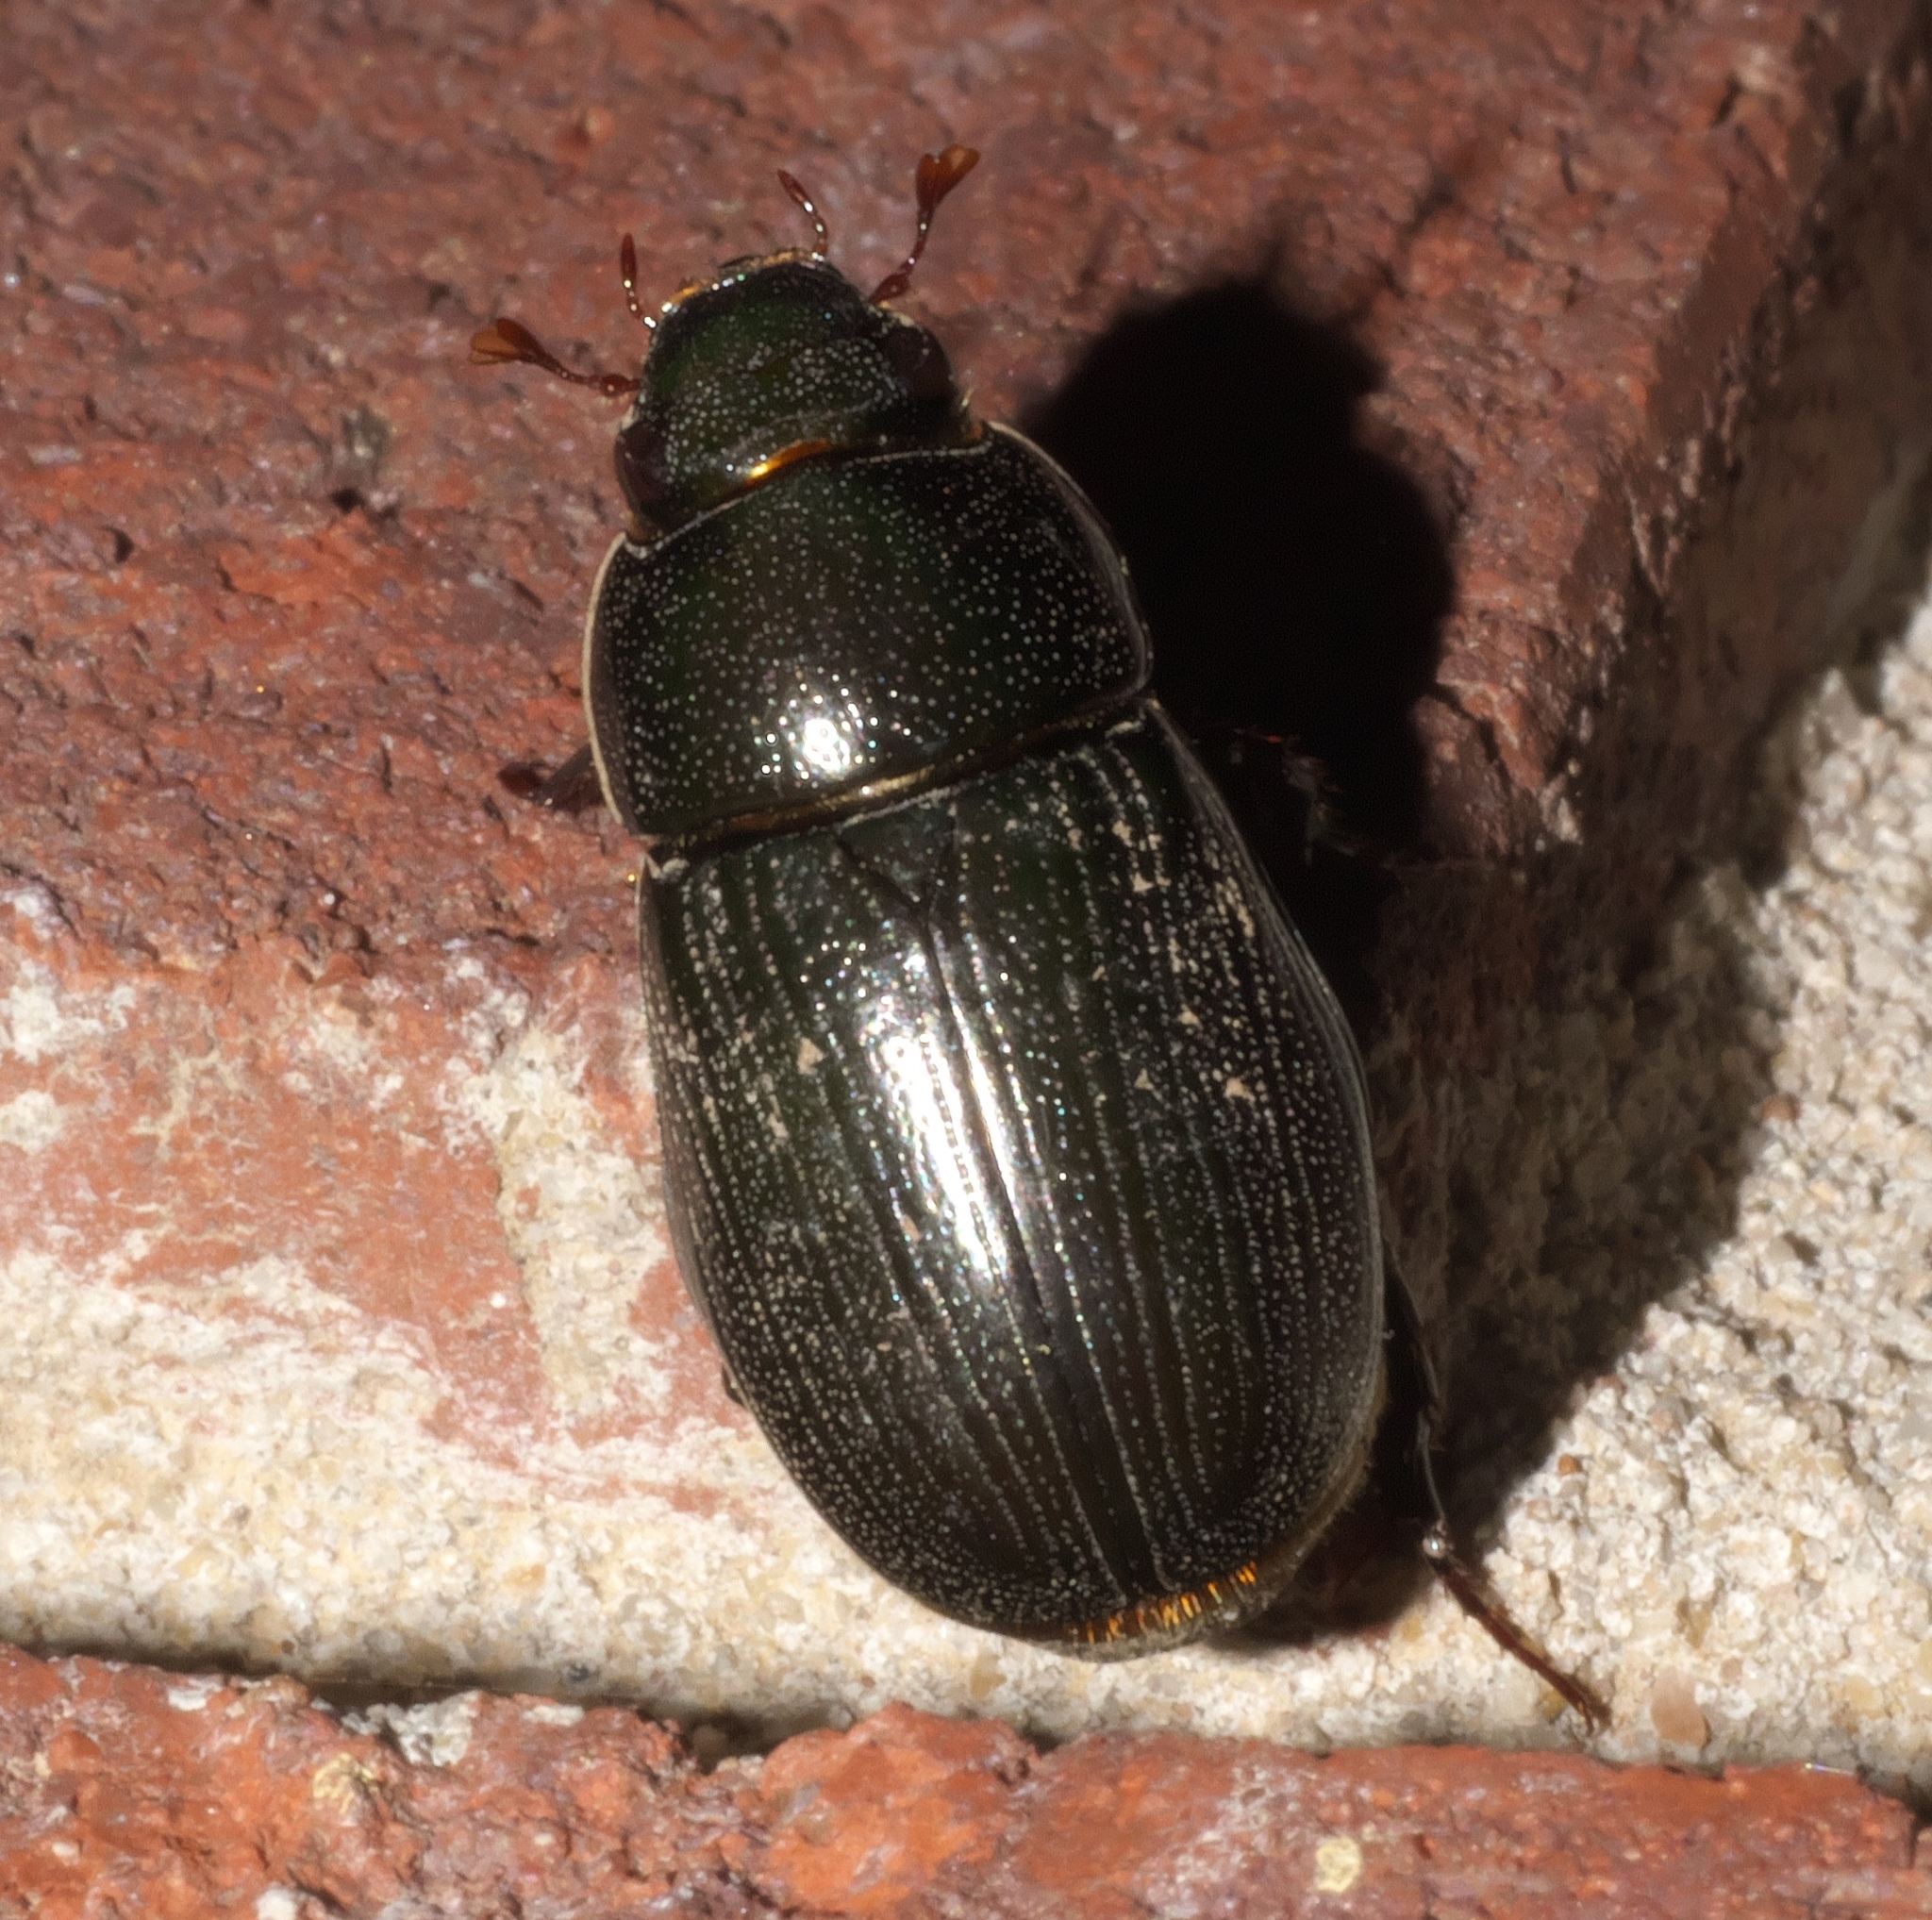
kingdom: Animalia
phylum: Arthropoda
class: Insecta
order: Coleoptera
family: Scarabaeidae
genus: Dyscinetus
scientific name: Dyscinetus morator
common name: Rice beetle
